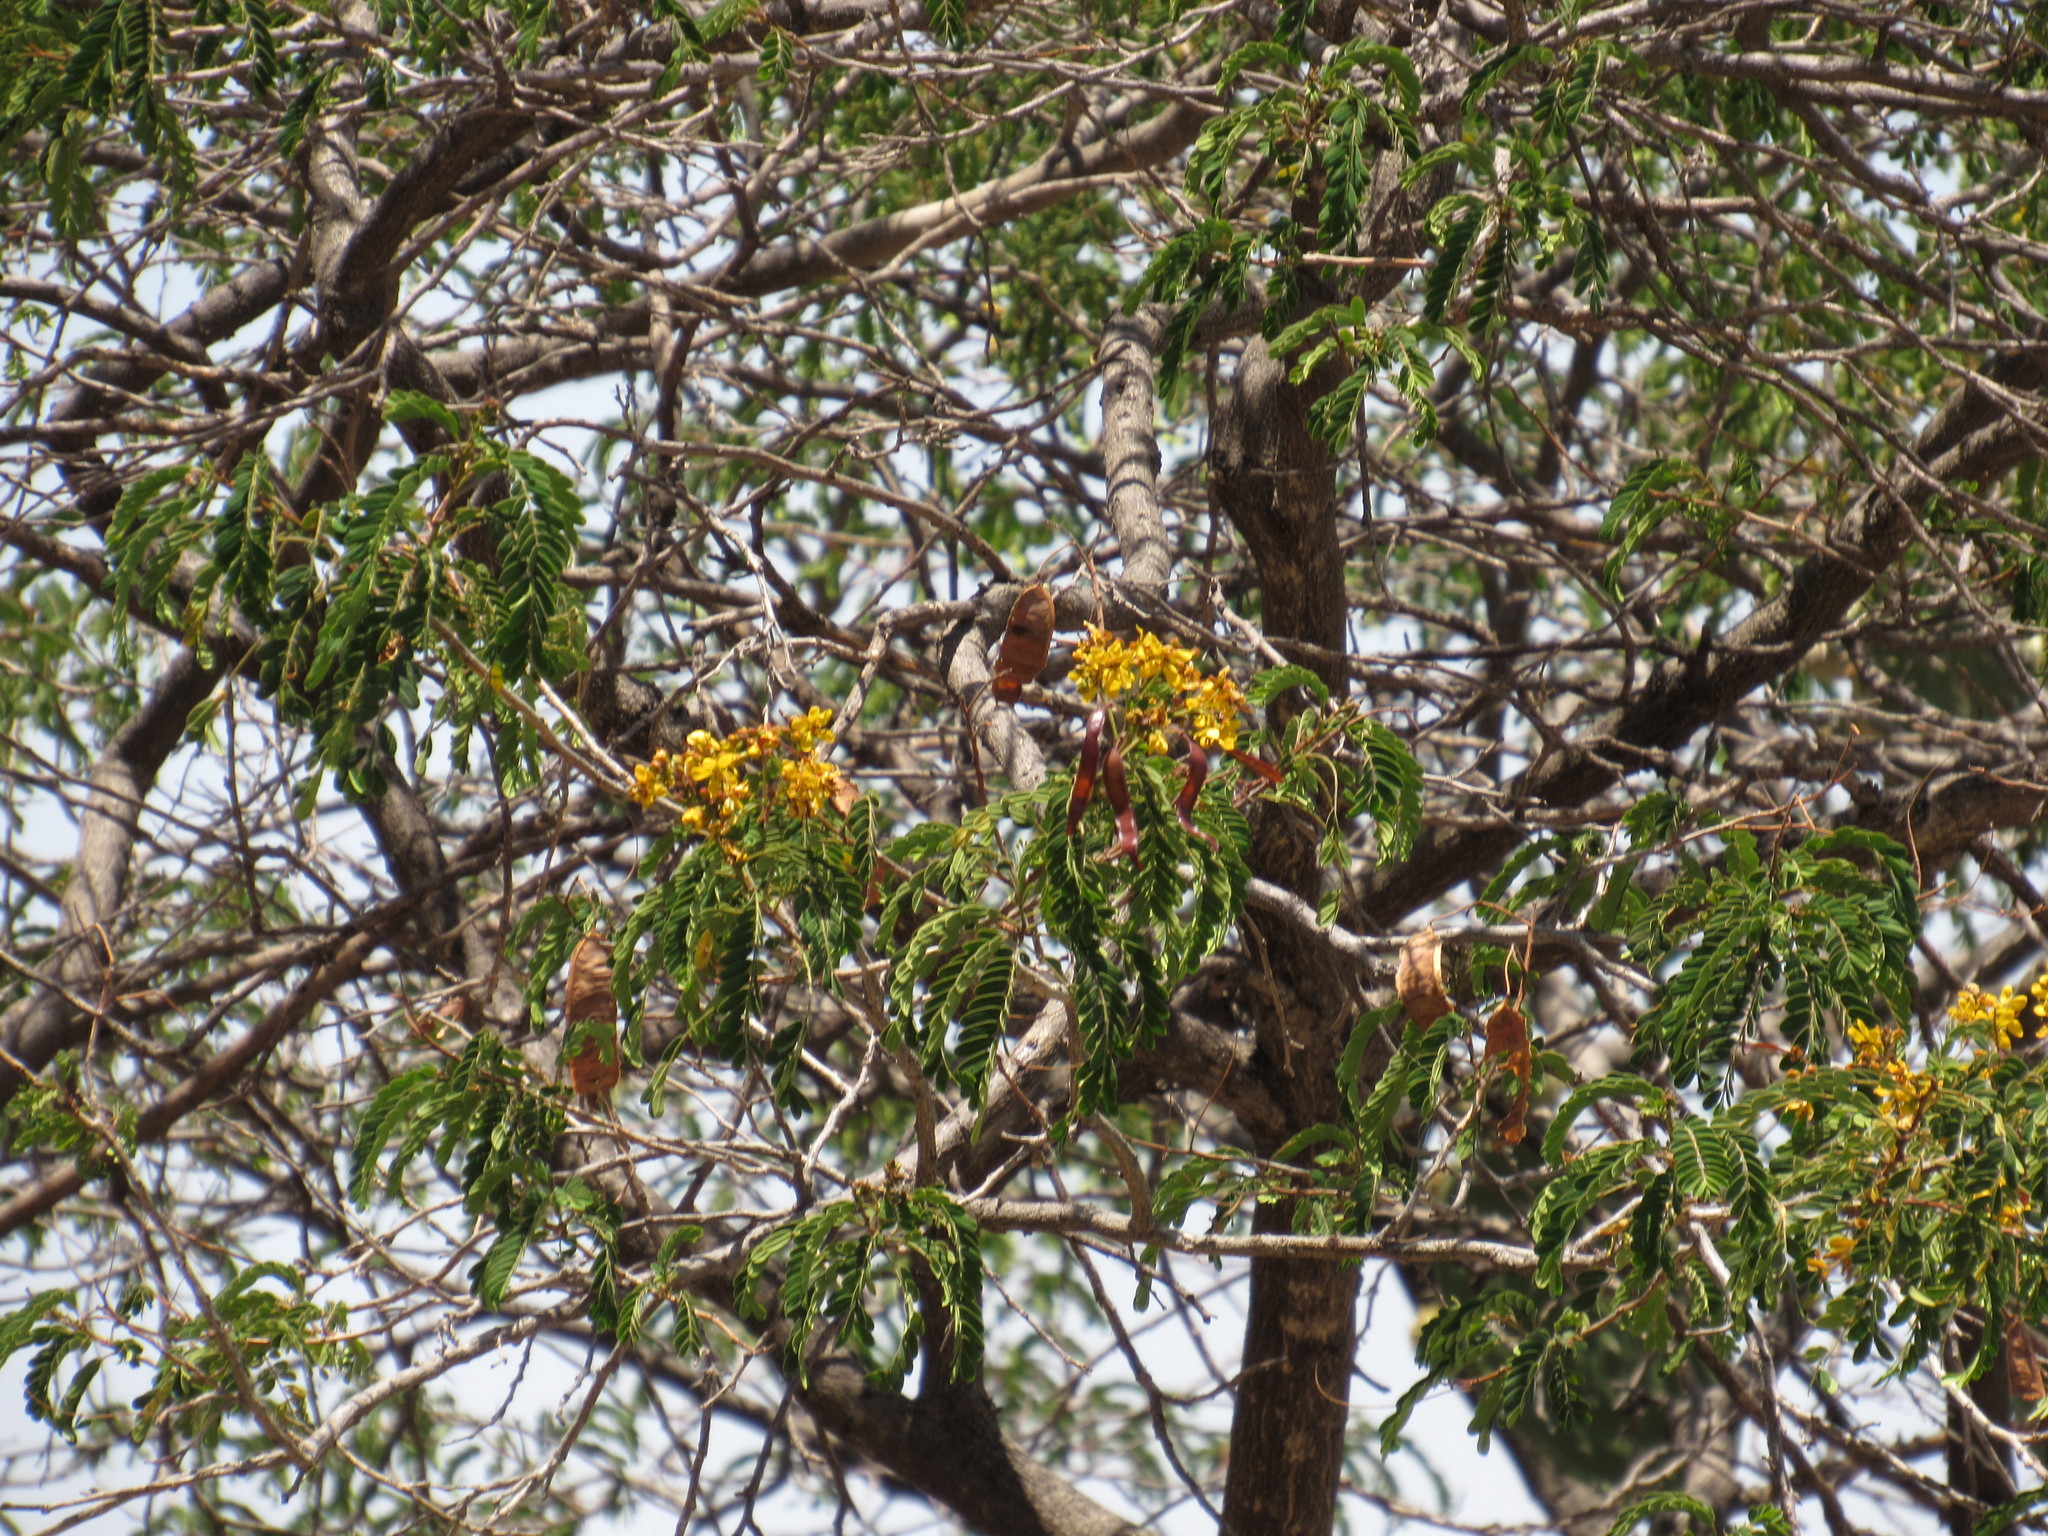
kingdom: Plantae
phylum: Tracheophyta
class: Magnoliopsida
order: Fabales
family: Fabaceae
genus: Senna
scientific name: Senna galeottiana
